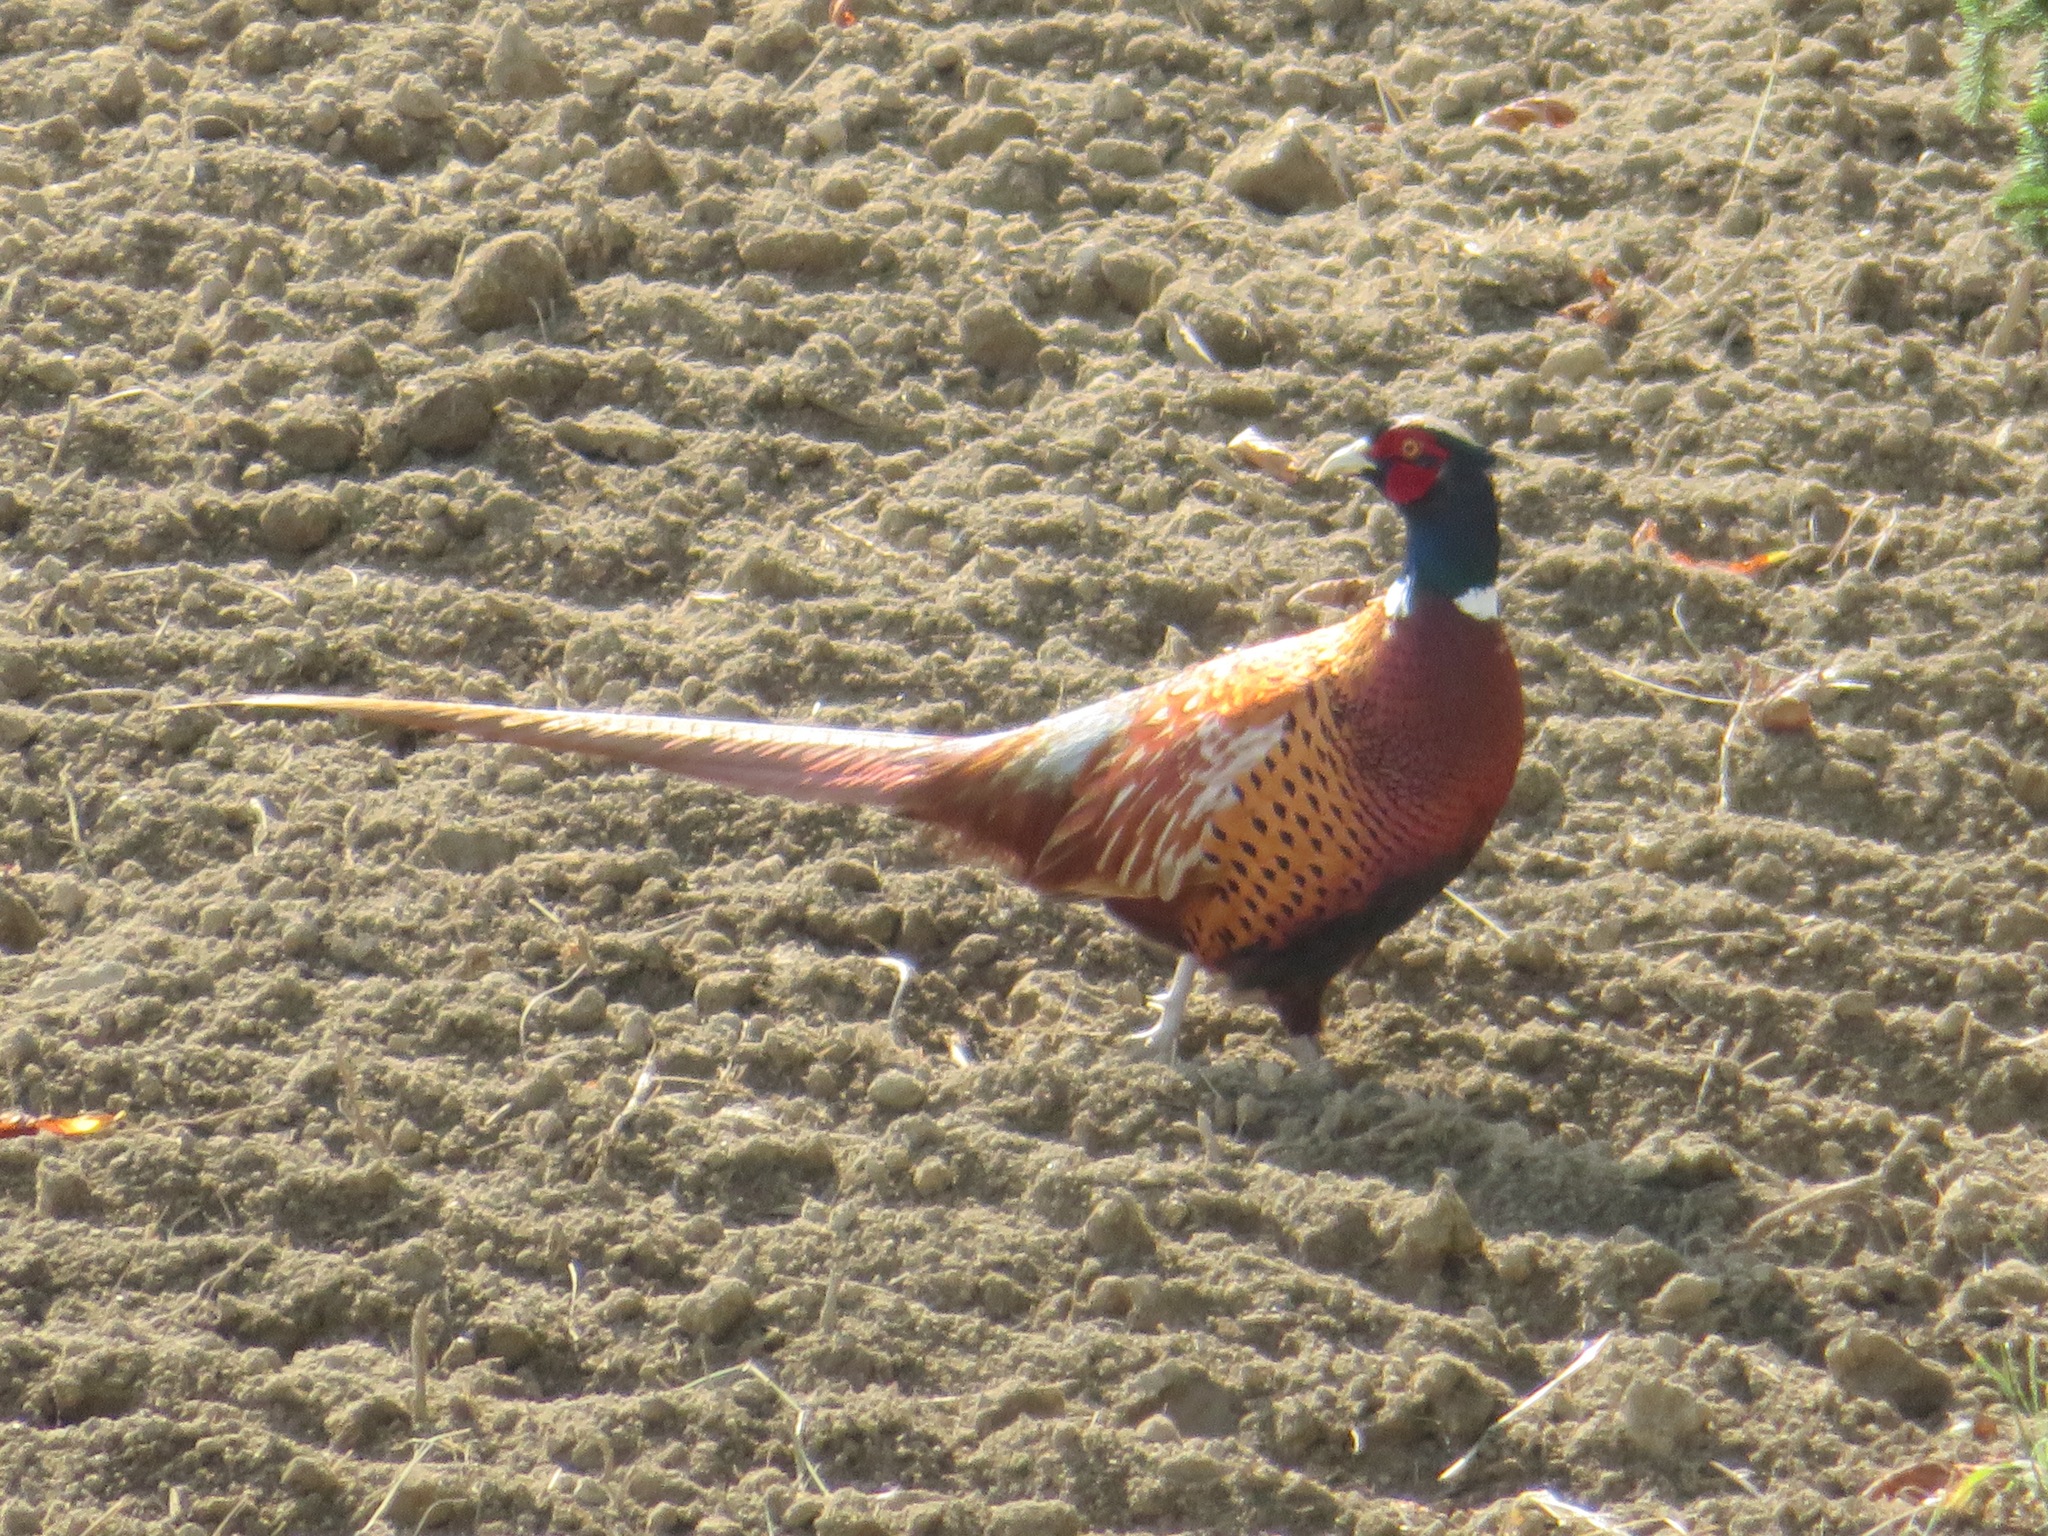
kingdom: Animalia
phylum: Chordata
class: Aves
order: Galliformes
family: Phasianidae
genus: Phasianus
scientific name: Phasianus colchicus
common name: Common pheasant
